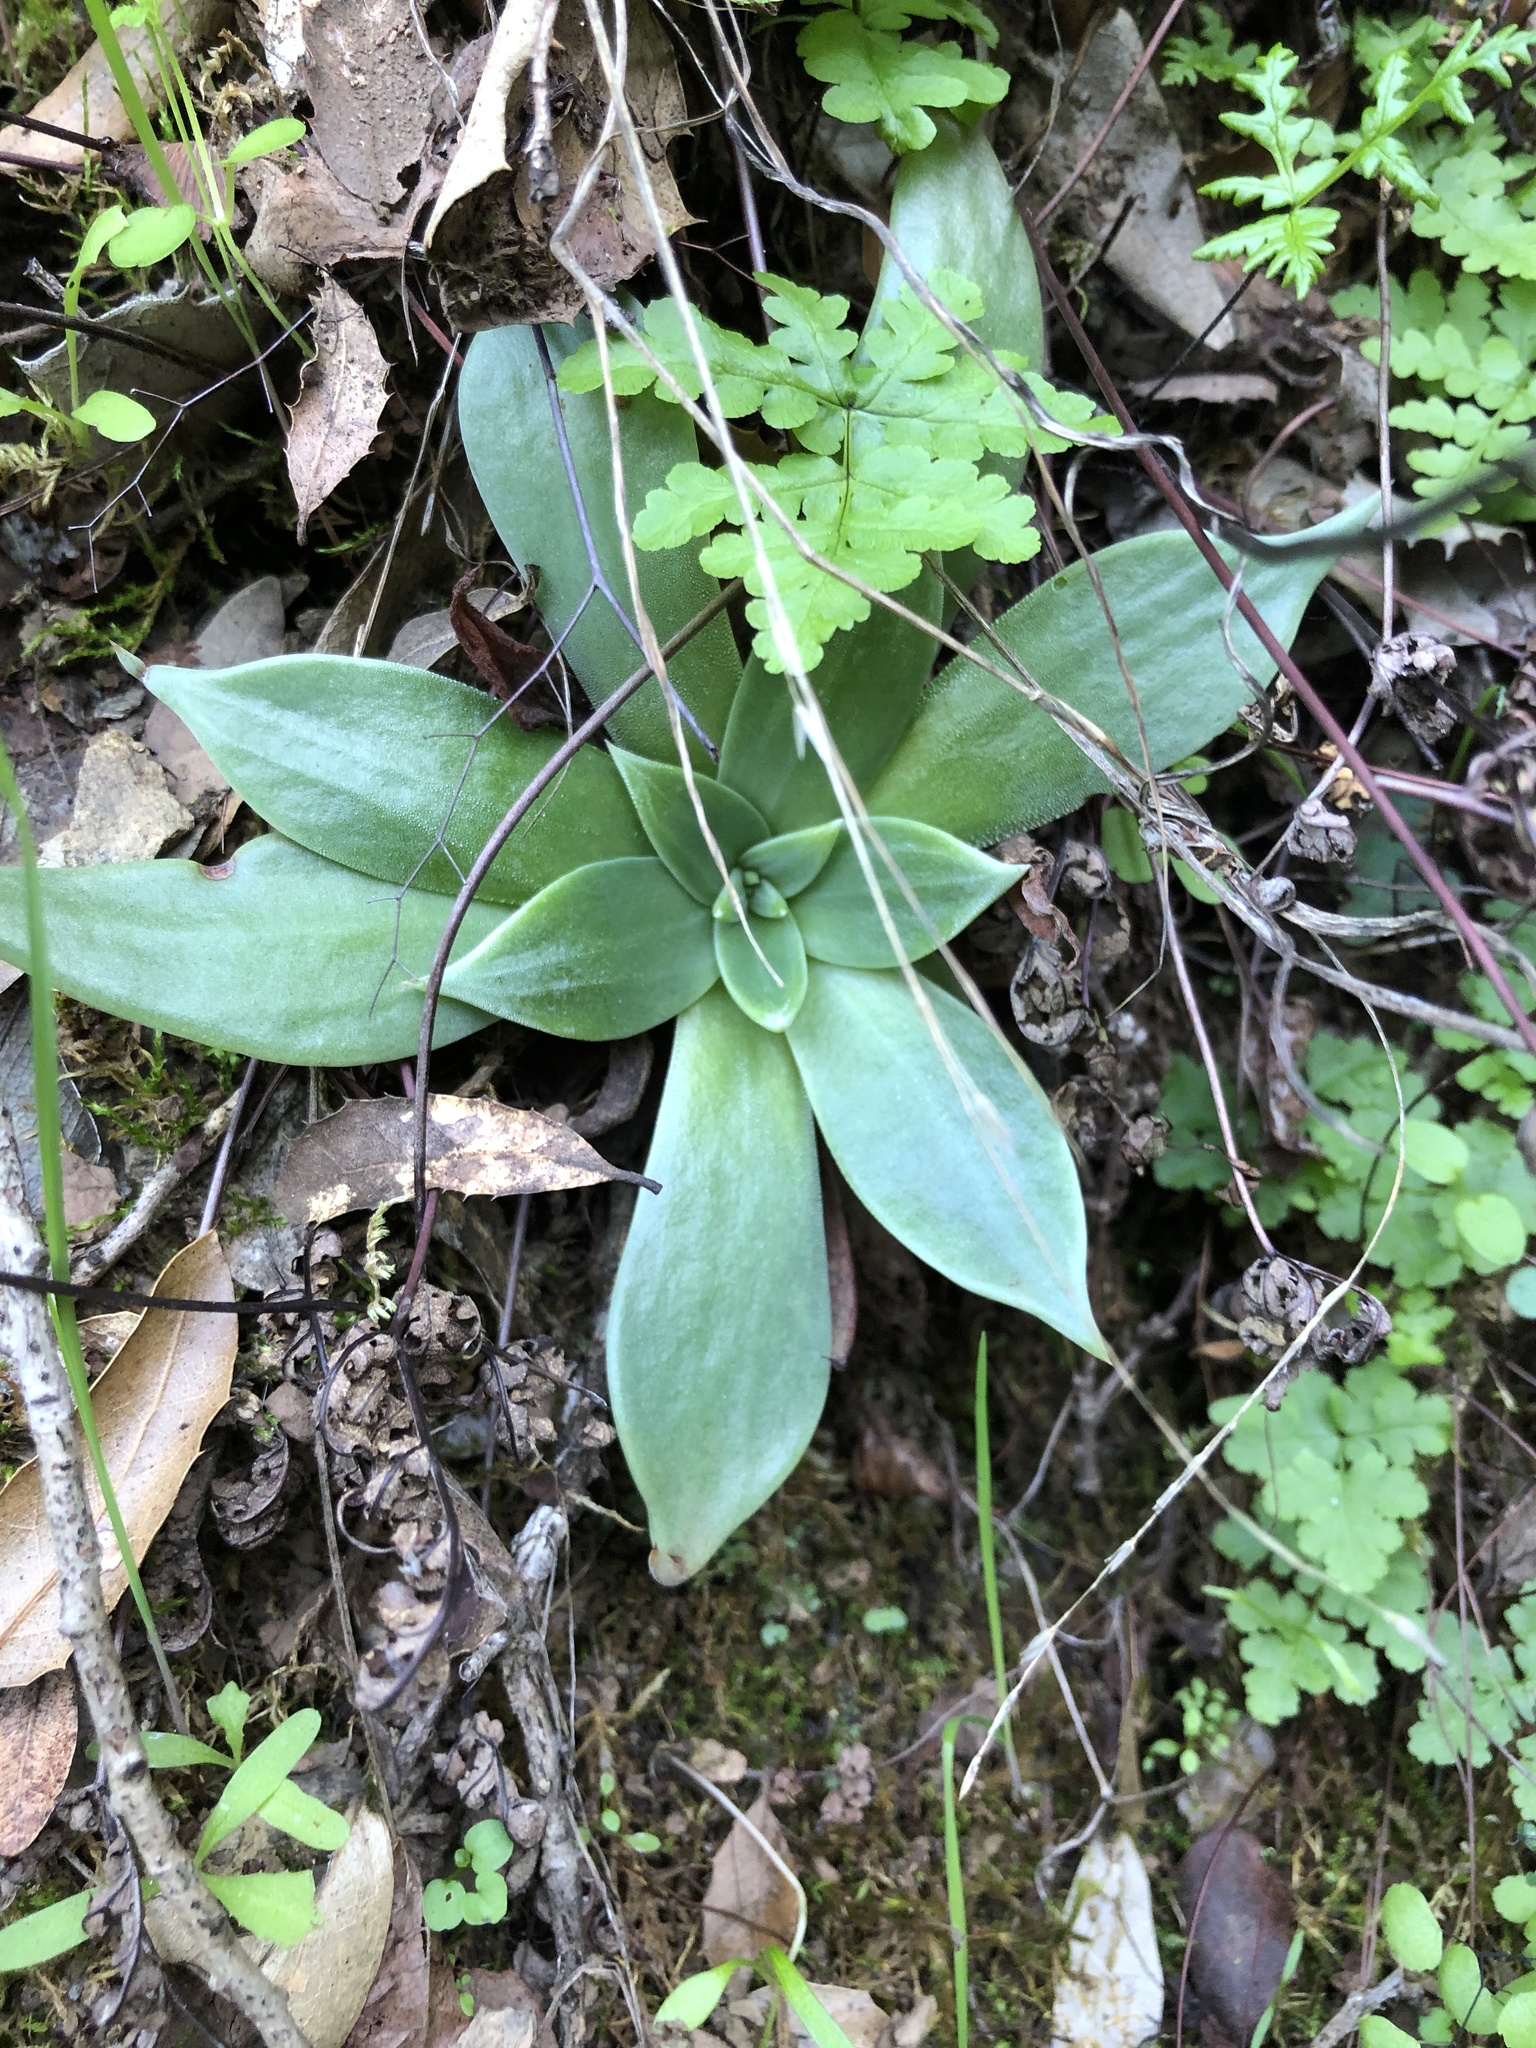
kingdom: Plantae
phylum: Tracheophyta
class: Magnoliopsida
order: Saxifragales
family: Crassulaceae
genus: Dudleya
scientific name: Dudleya cymosa
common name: Canyon dudleya
